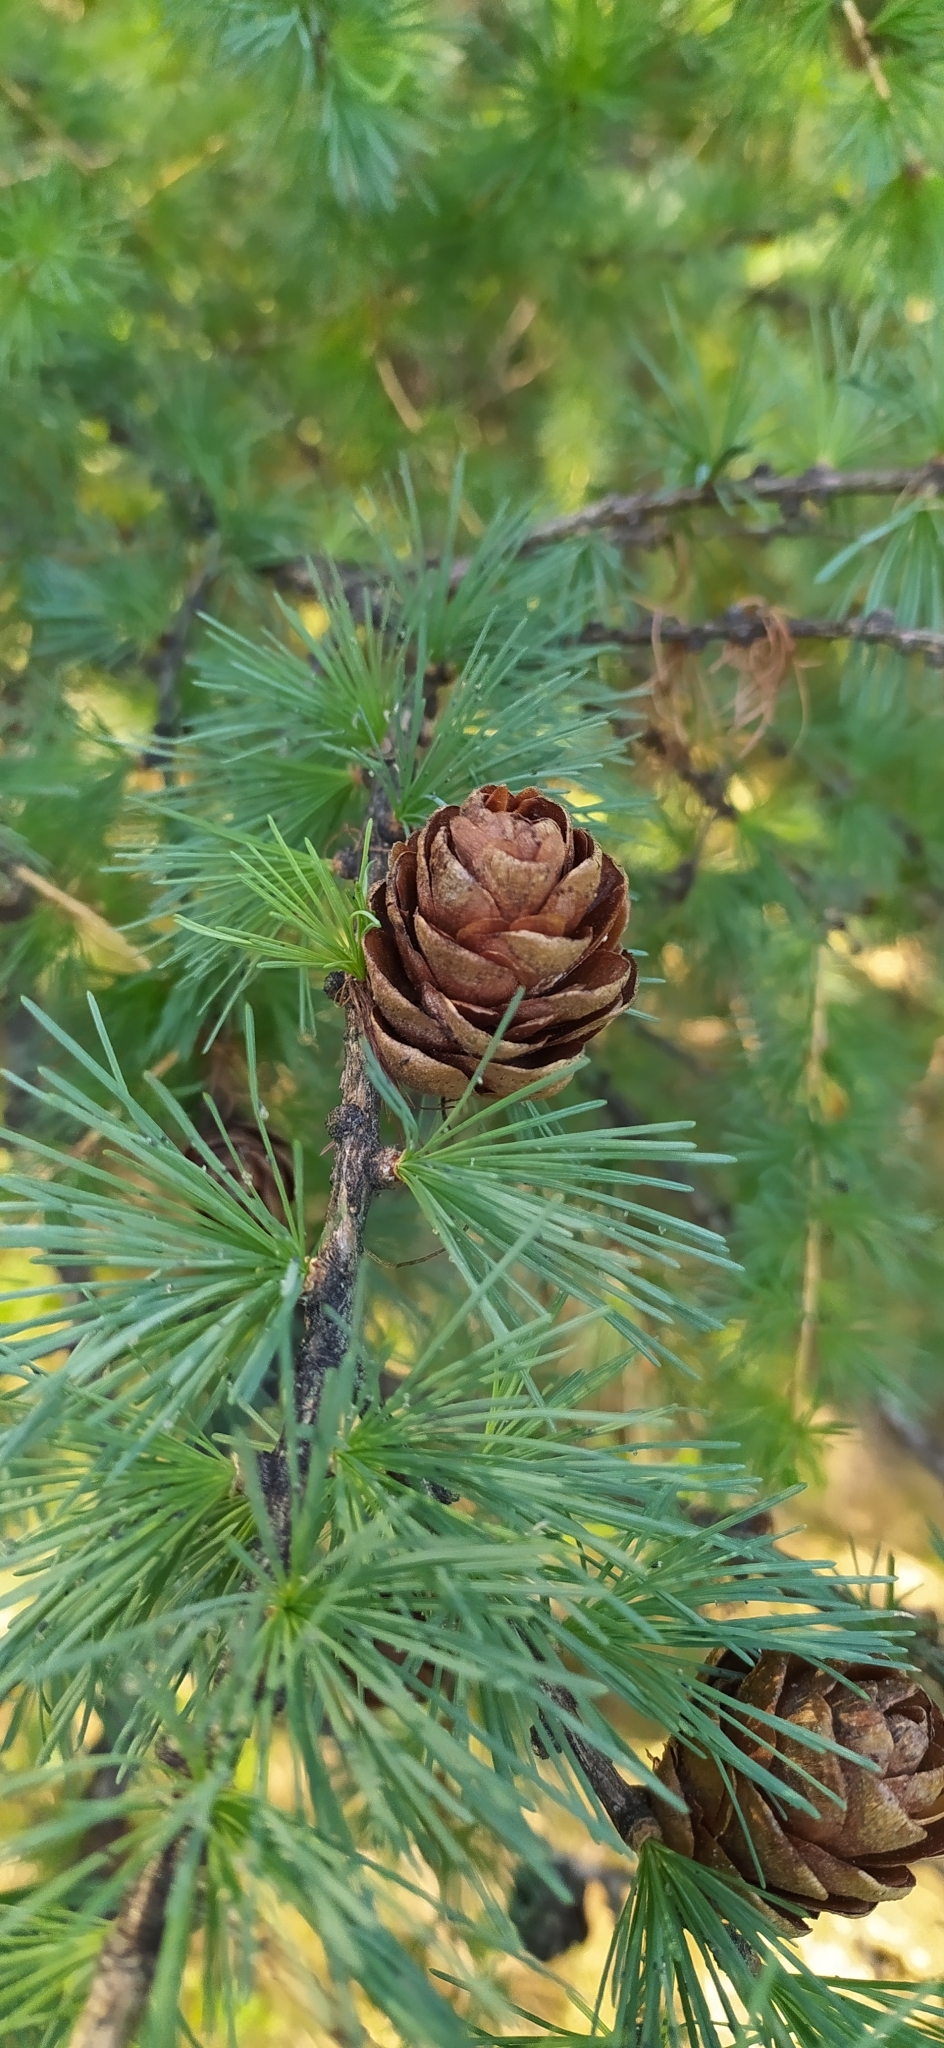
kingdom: Plantae
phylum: Tracheophyta
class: Pinopsida
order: Pinales
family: Pinaceae
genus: Larix
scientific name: Larix sibirica
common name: Siberian larch
